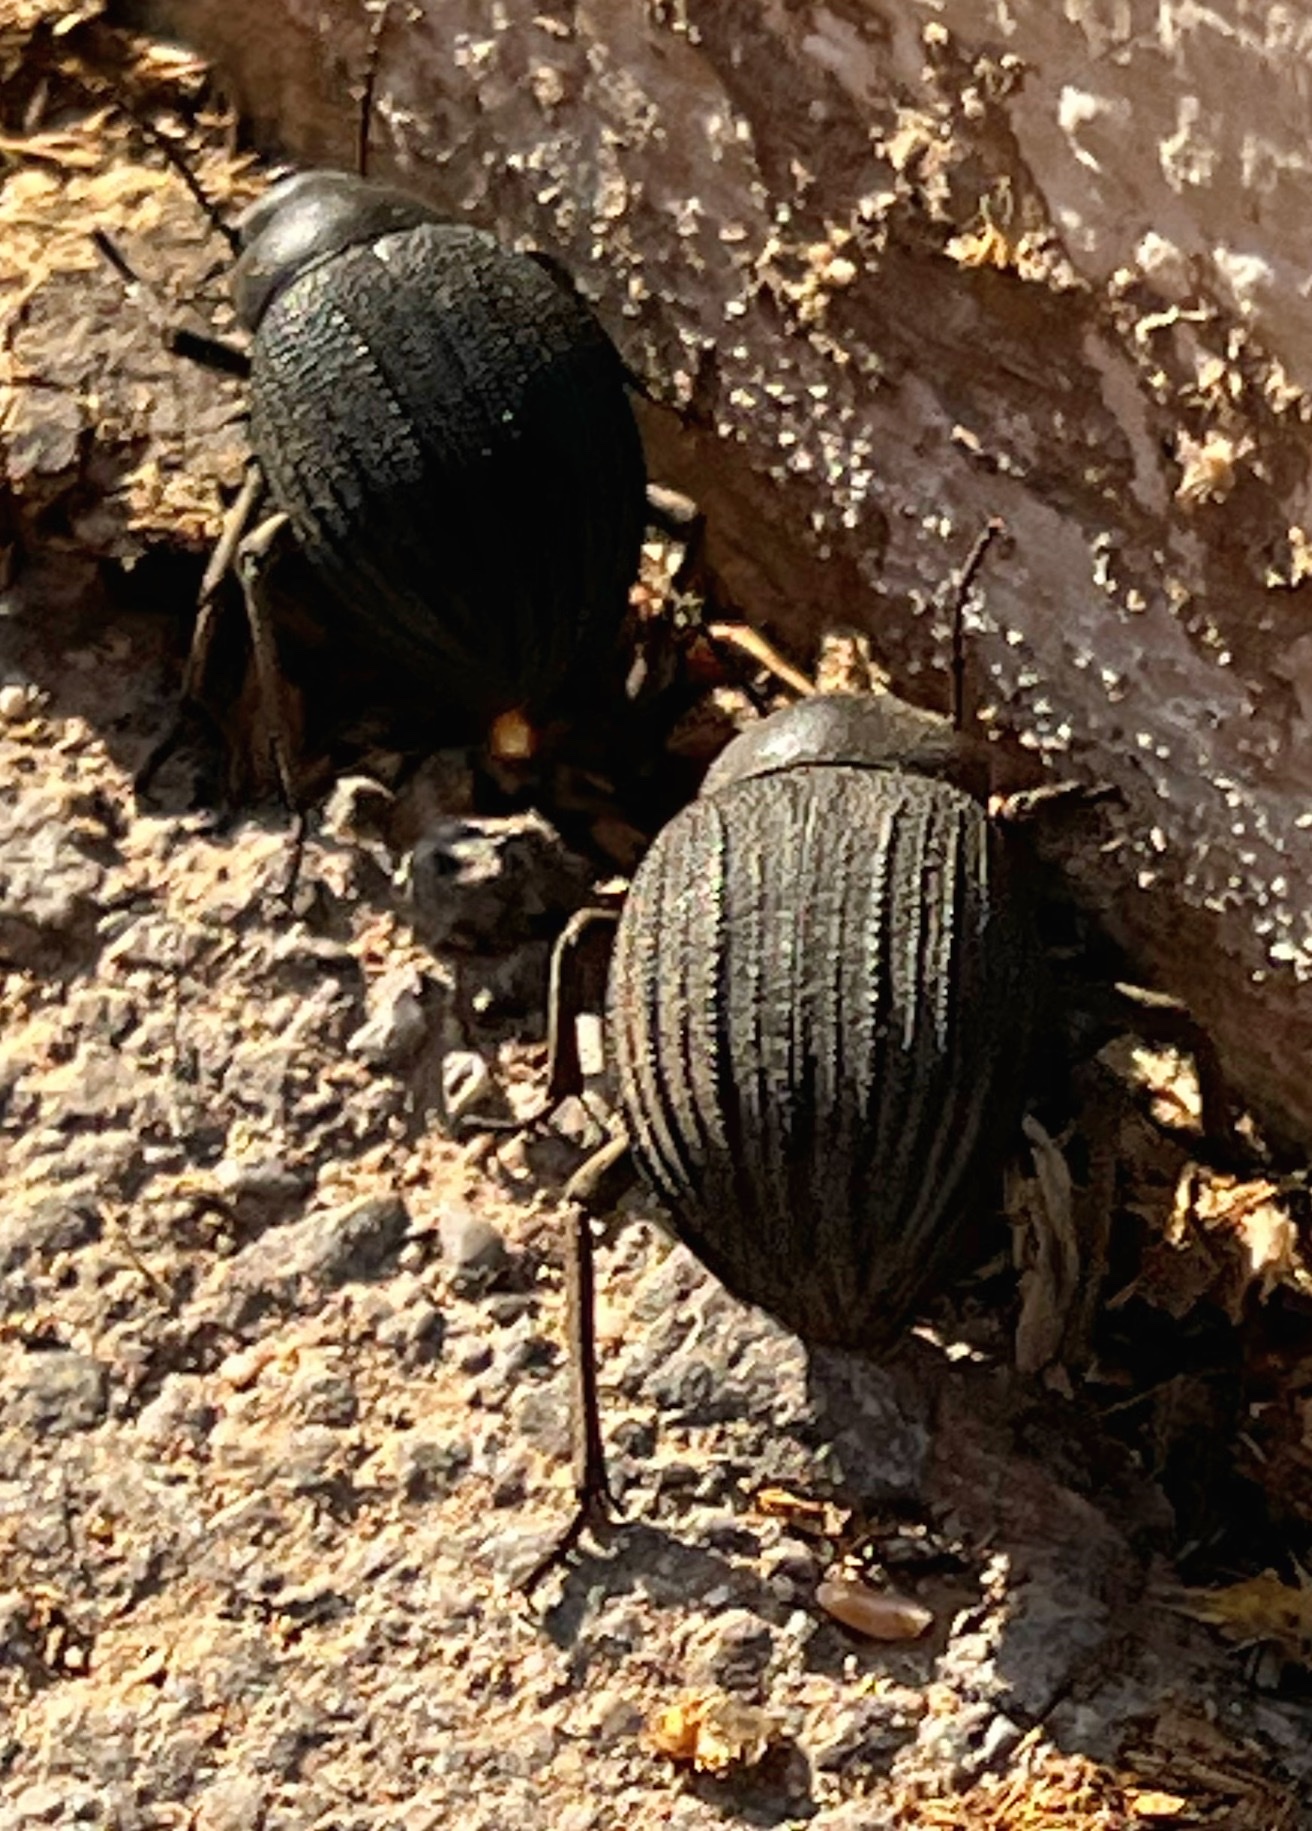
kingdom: Animalia
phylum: Arthropoda
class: Insecta
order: Coleoptera
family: Tenebrionidae
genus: Pimelia
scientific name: Pimelia
